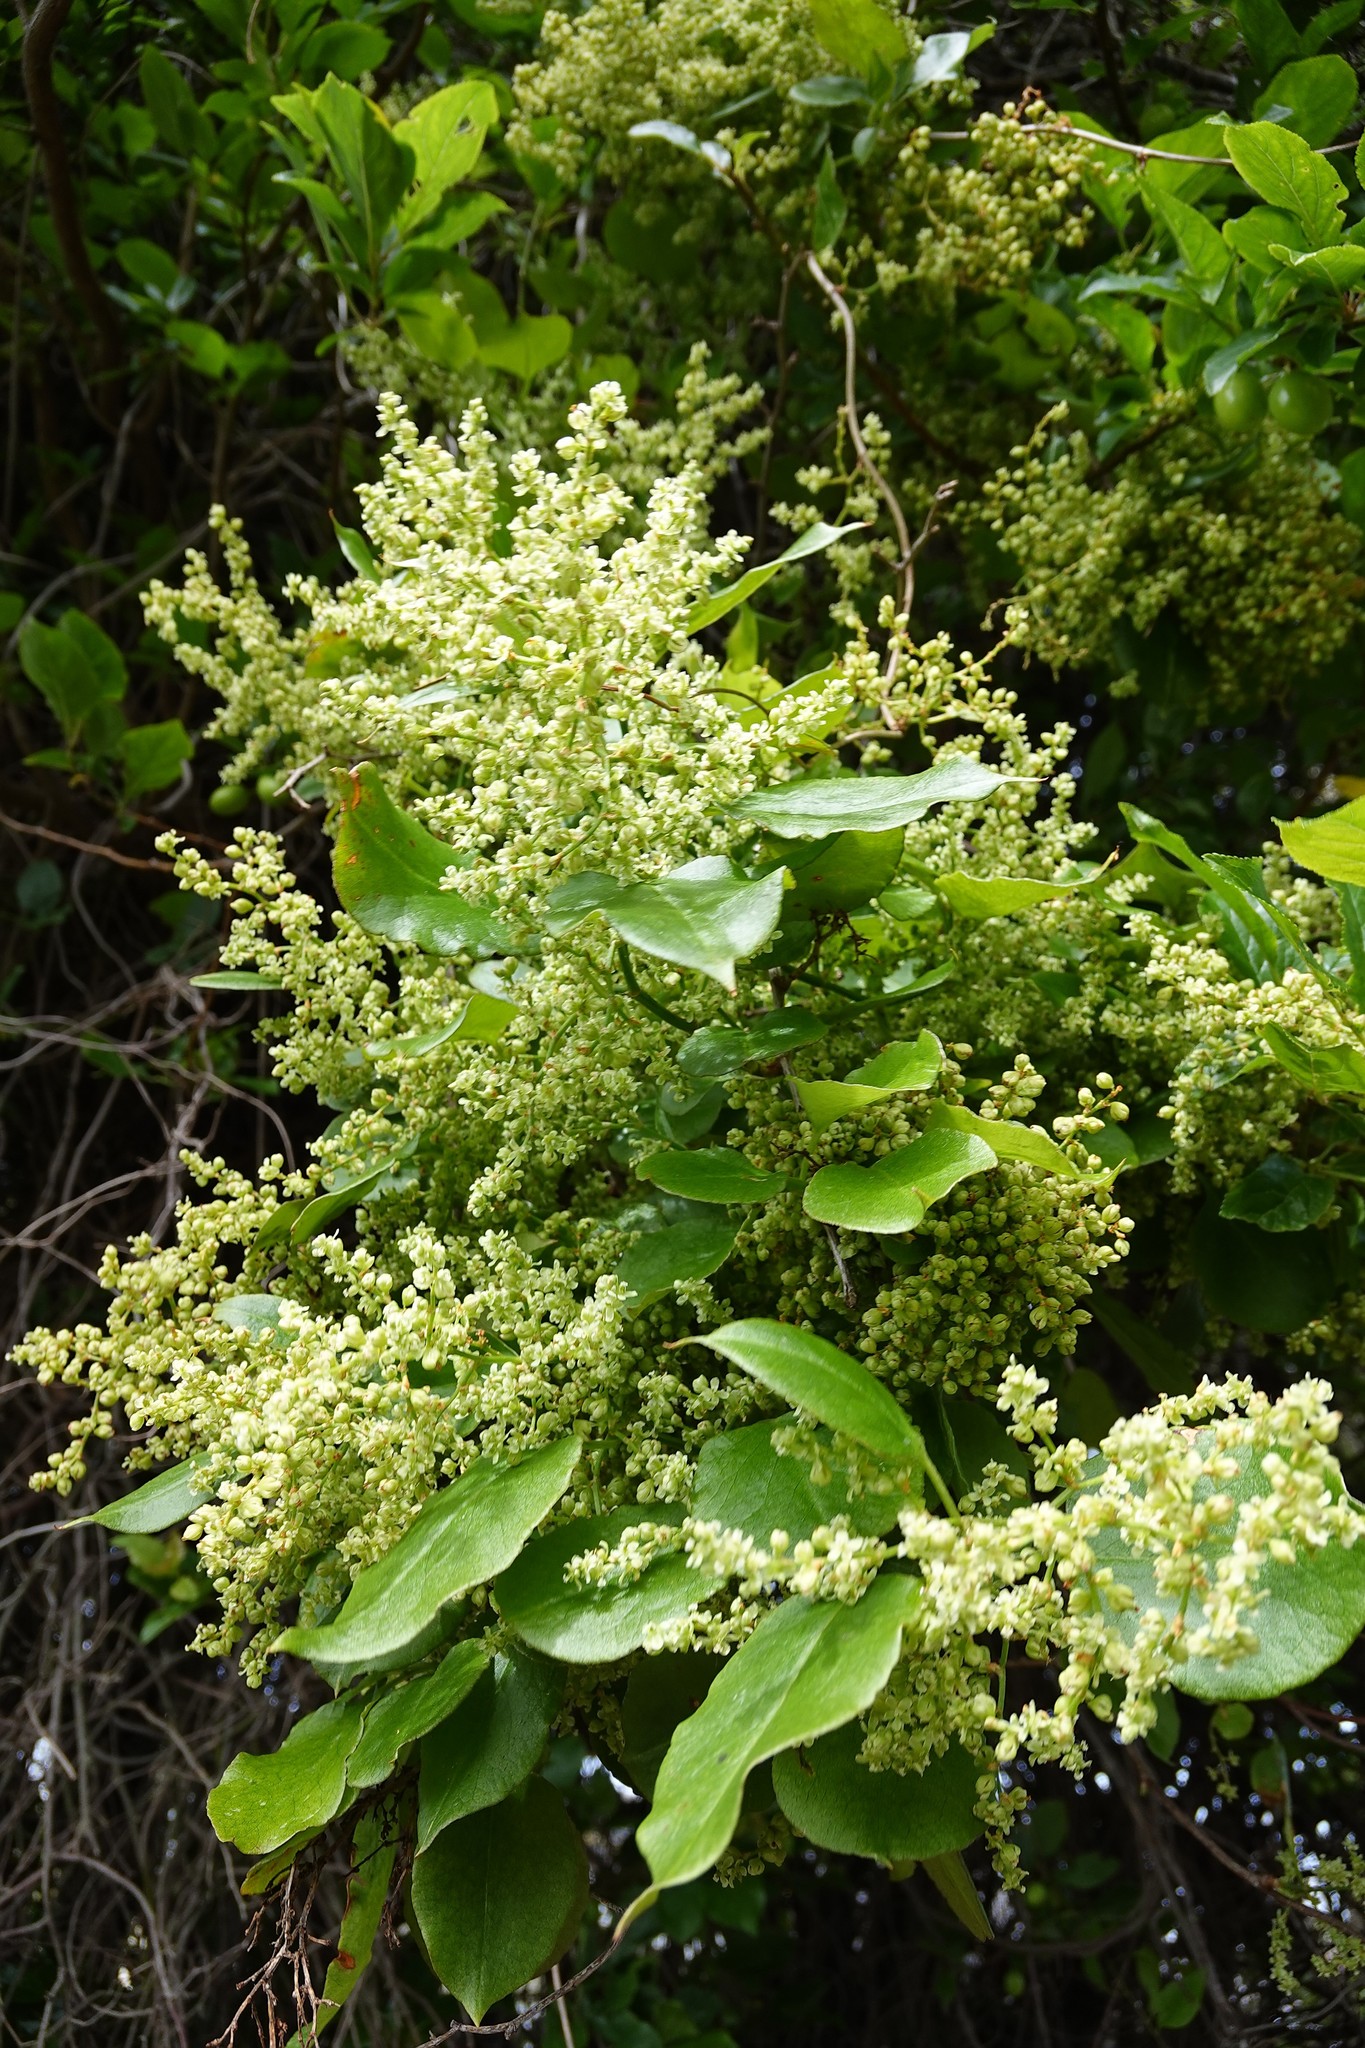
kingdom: Plantae
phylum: Tracheophyta
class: Magnoliopsida
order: Caryophyllales
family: Polygonaceae
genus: Muehlenbeckia
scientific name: Muehlenbeckia australis
